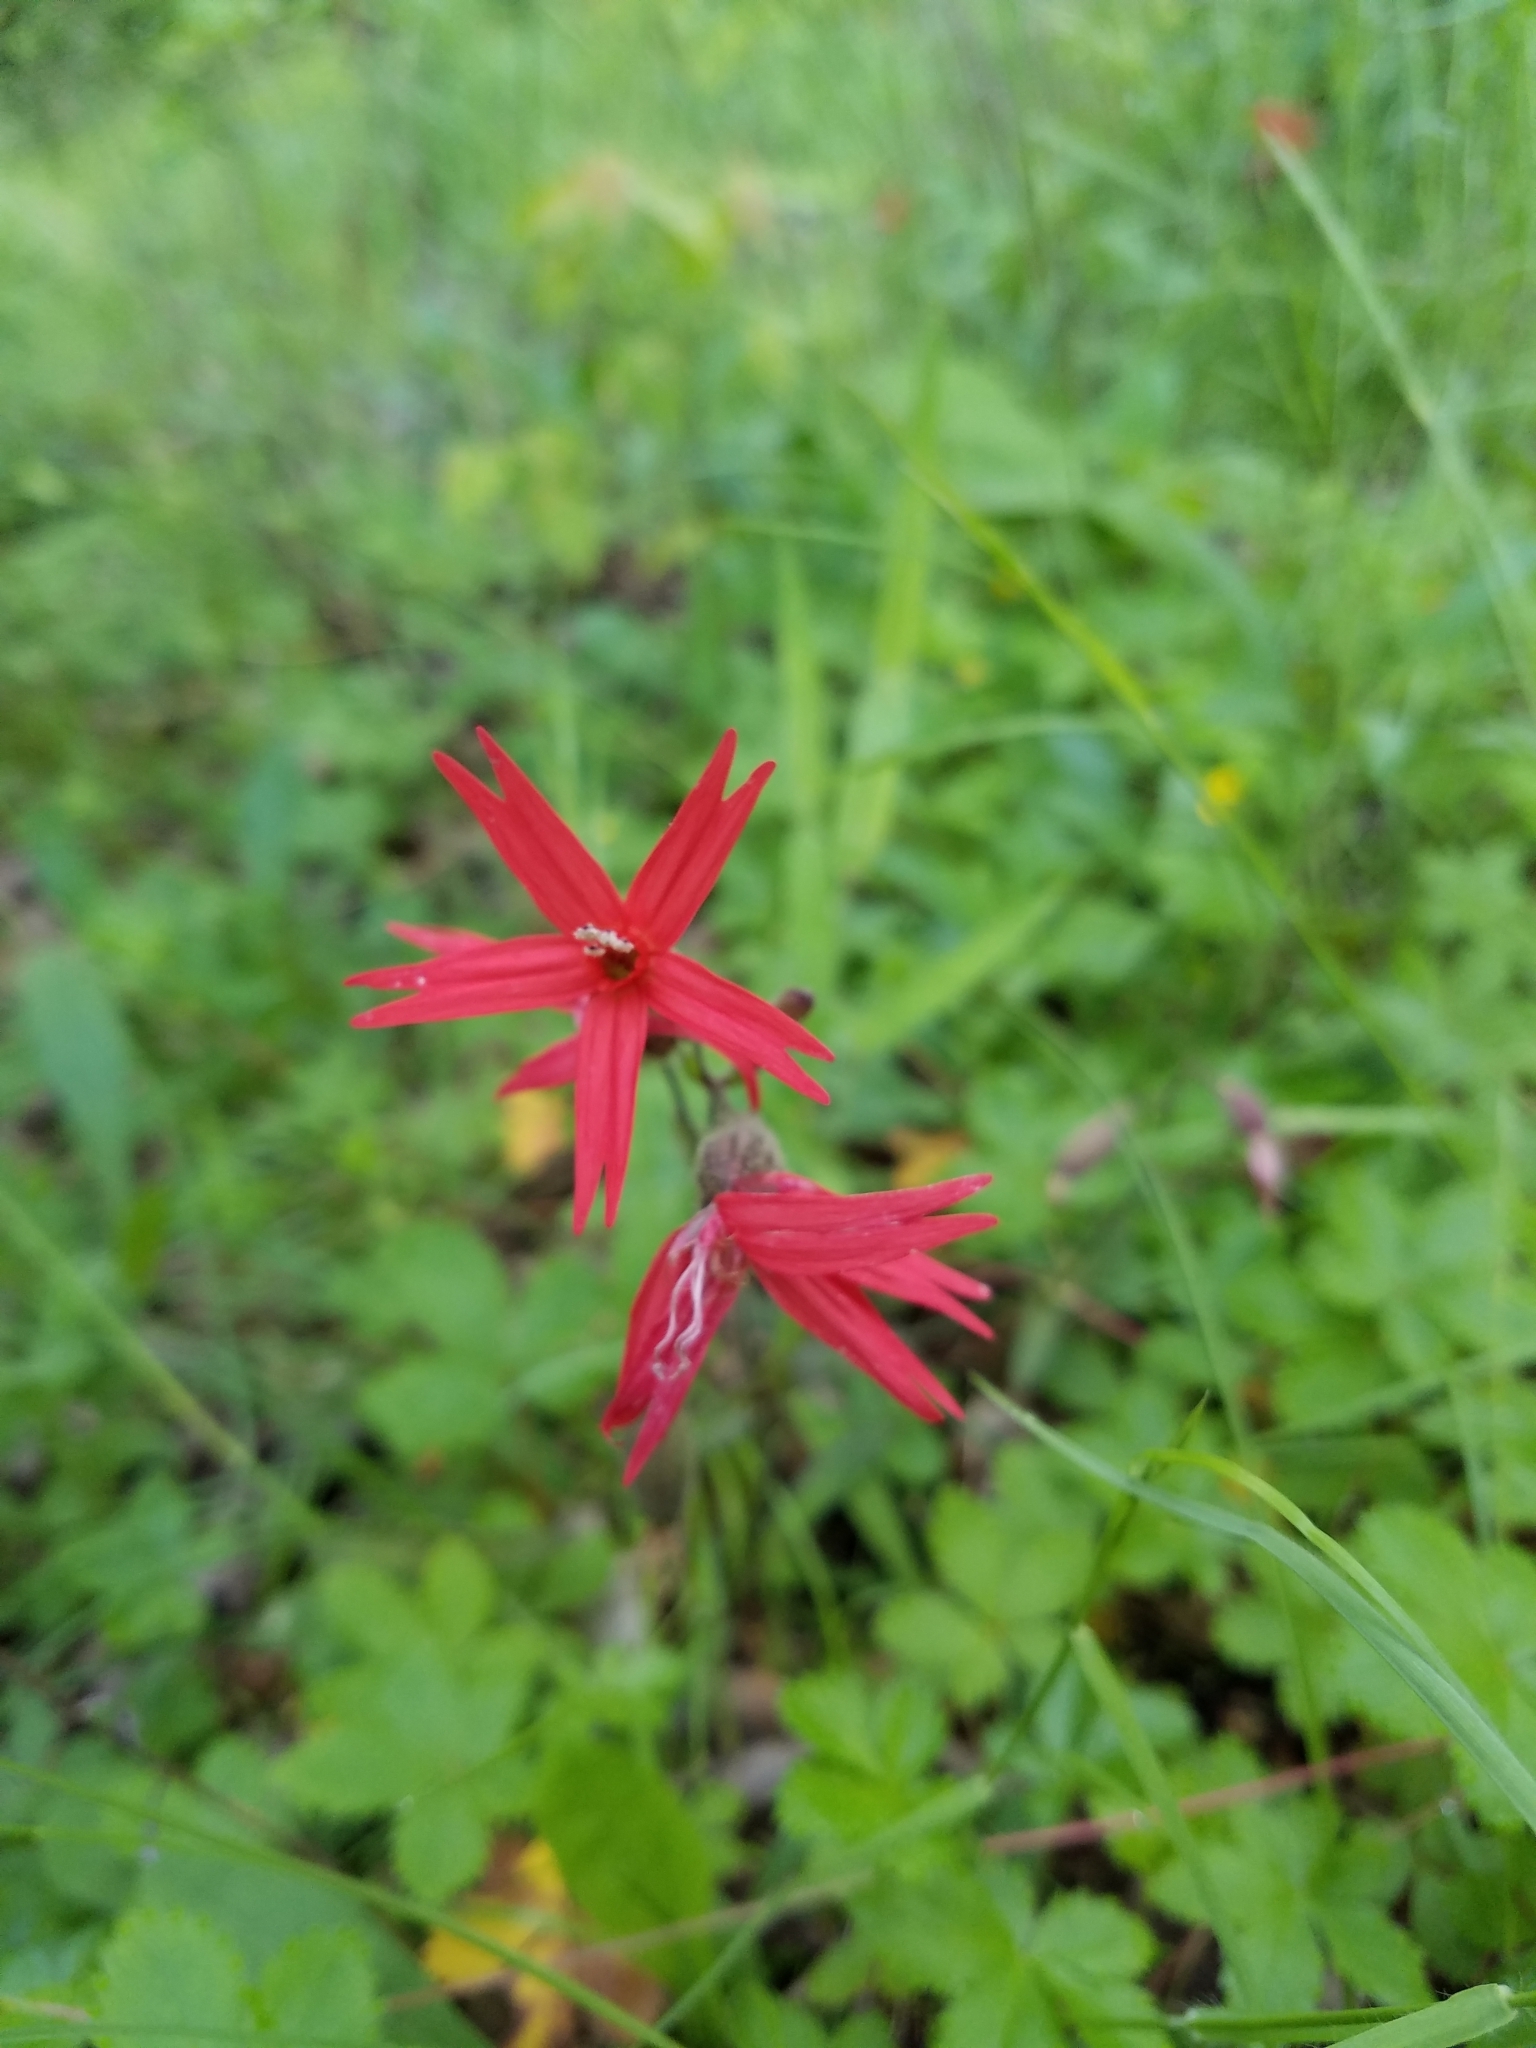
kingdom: Plantae
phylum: Tracheophyta
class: Magnoliopsida
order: Caryophyllales
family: Caryophyllaceae
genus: Silene
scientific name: Silene virginica
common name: Fire-pink
